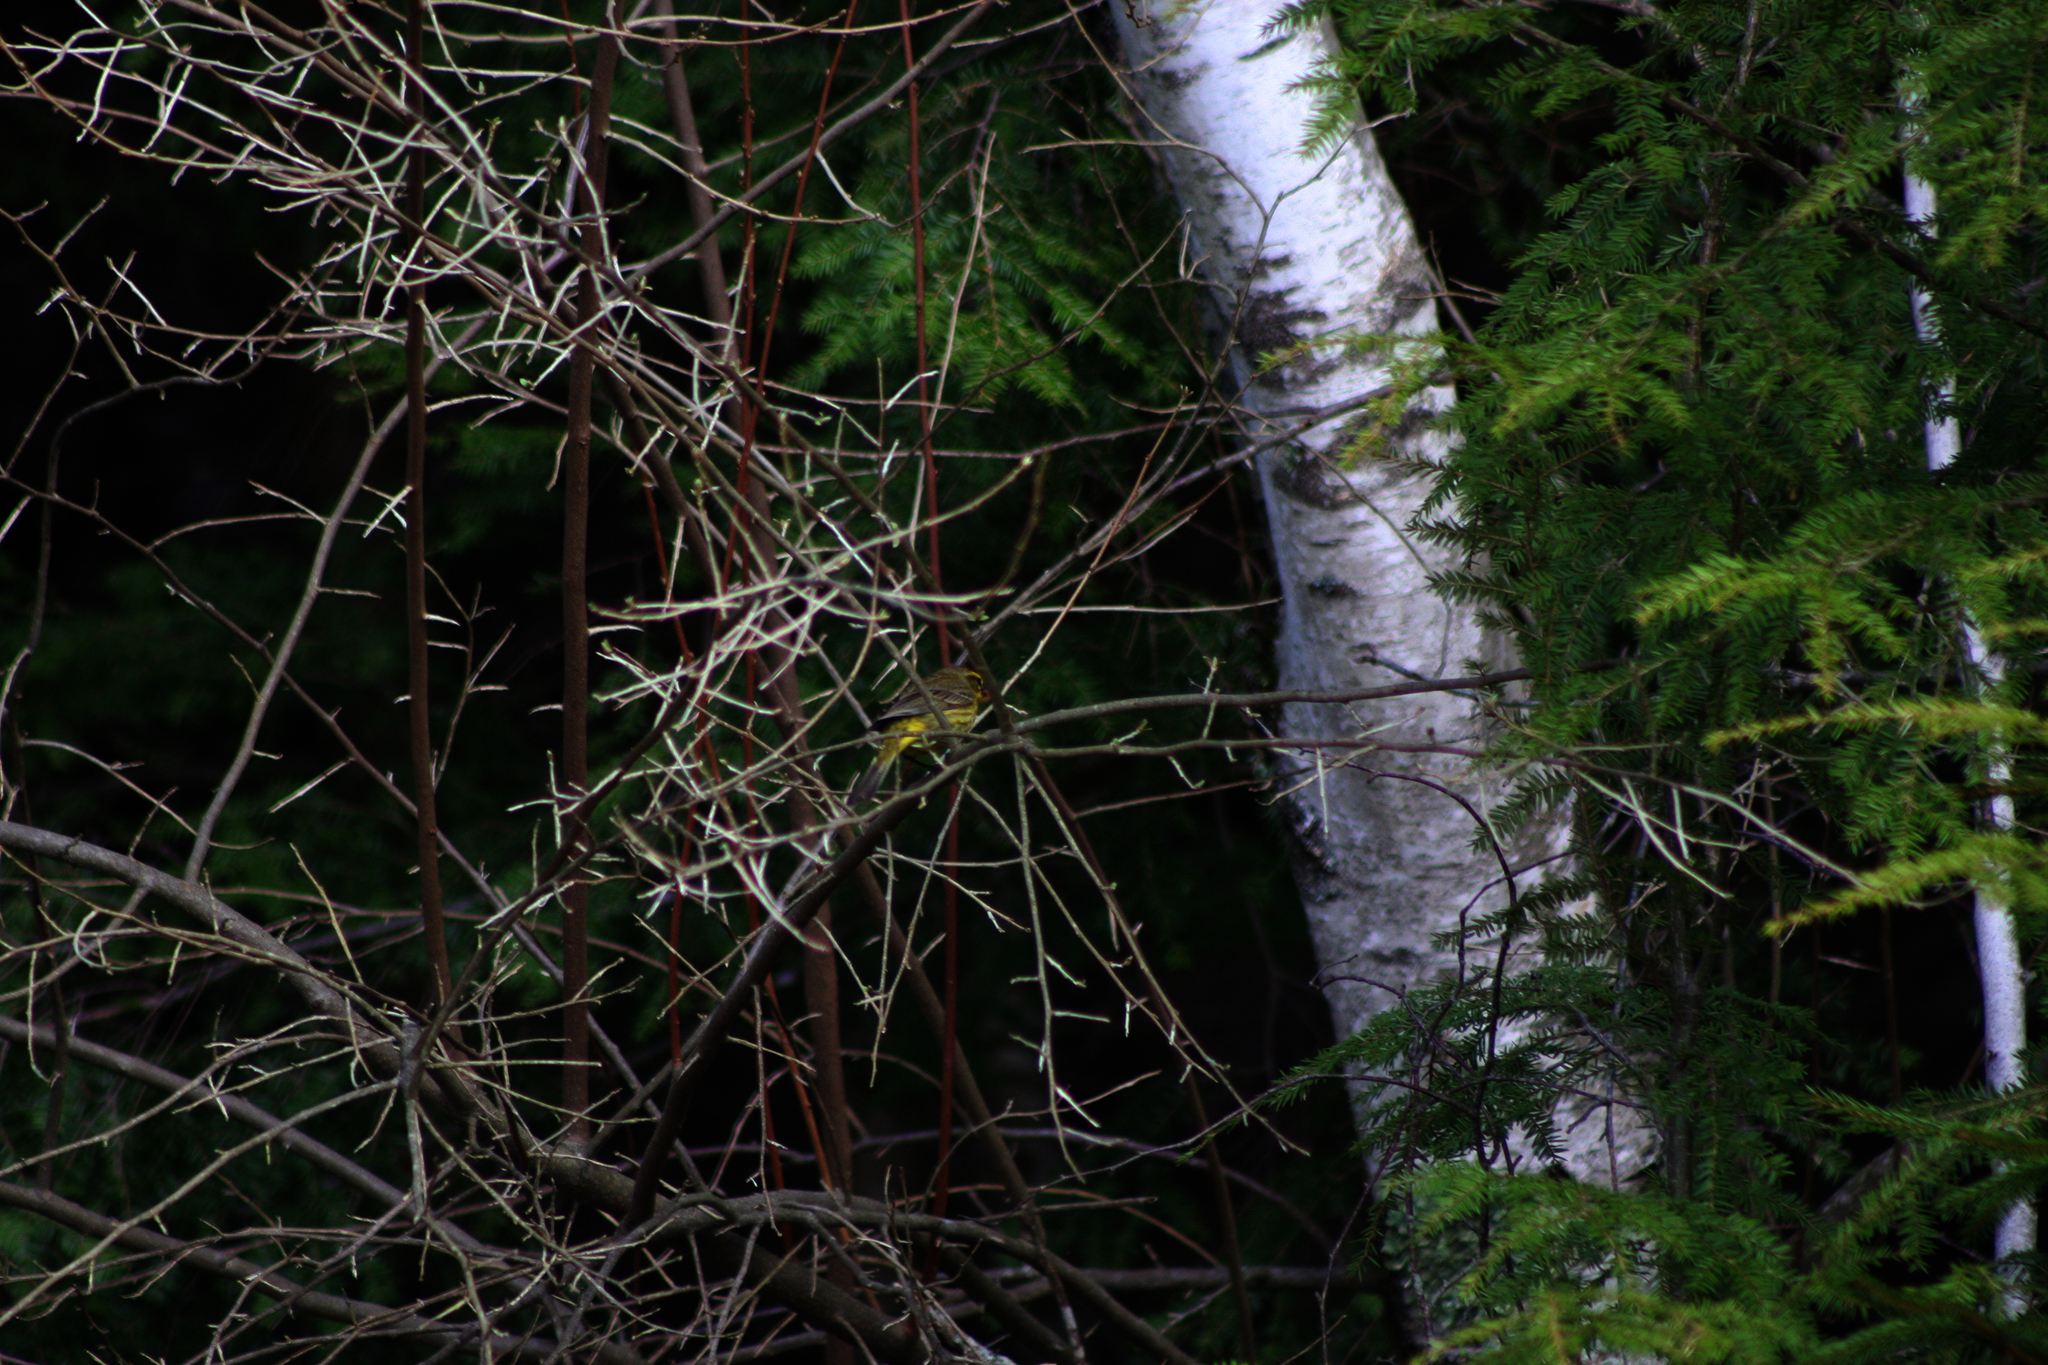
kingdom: Animalia
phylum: Chordata
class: Aves
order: Passeriformes
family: Parulidae
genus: Setophaga
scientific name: Setophaga palmarum
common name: Palm warbler
